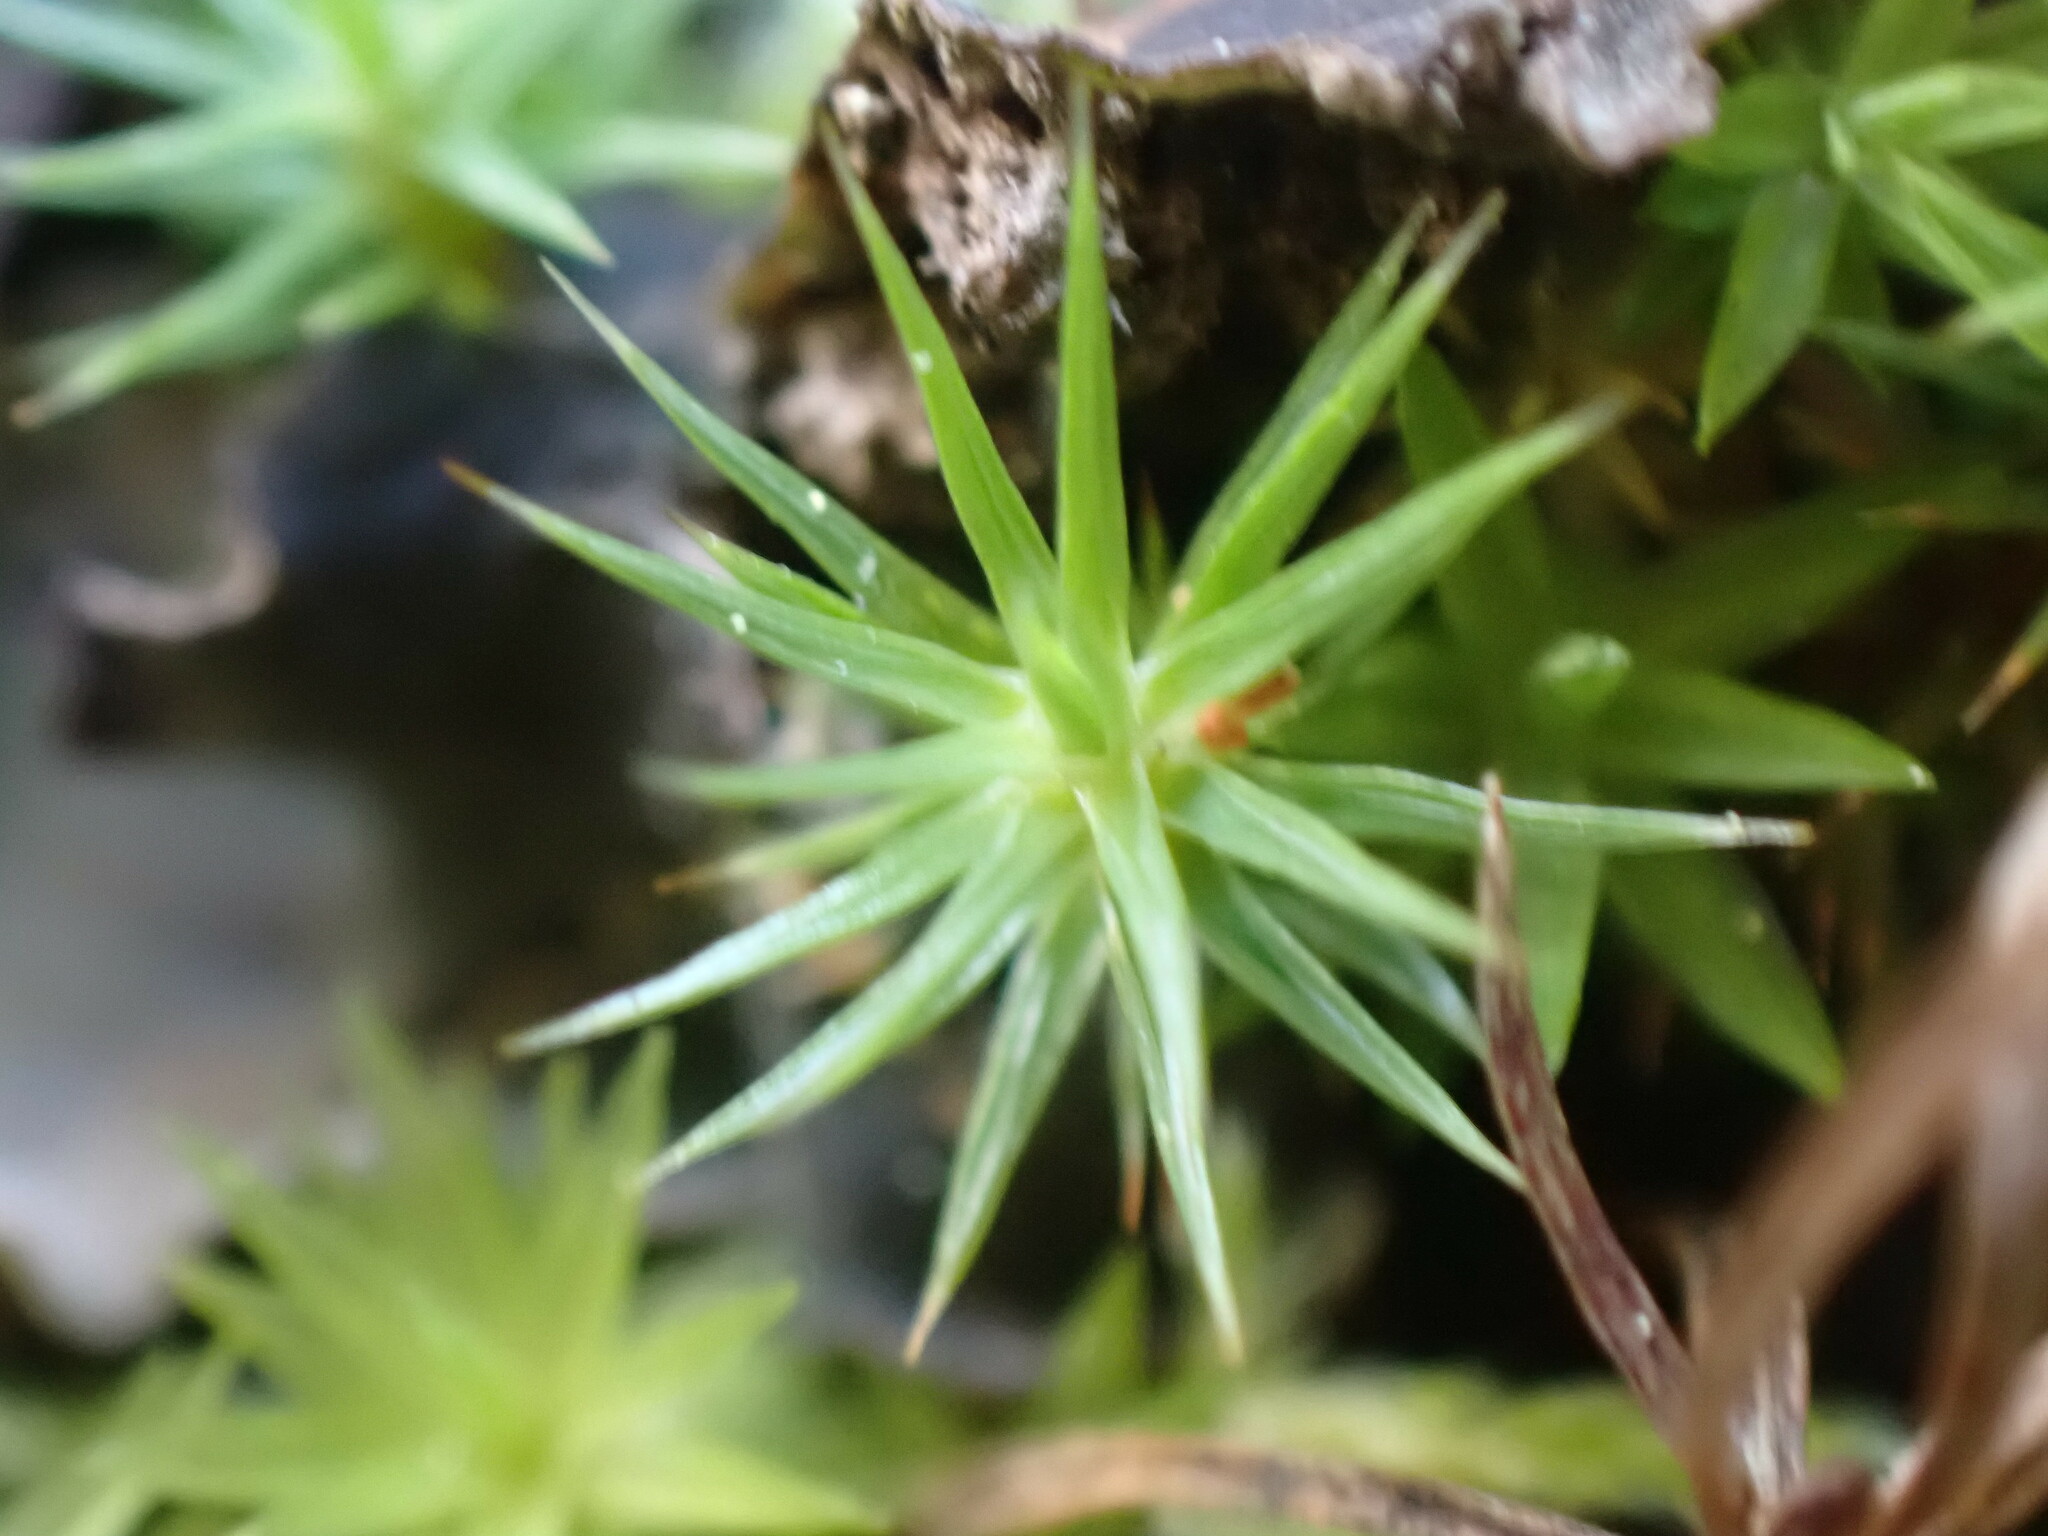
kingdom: Plantae
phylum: Bryophyta
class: Polytrichopsida
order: Polytrichales
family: Polytrichaceae
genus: Polytrichum
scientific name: Polytrichum juniperinum
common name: Juniper haircap moss
